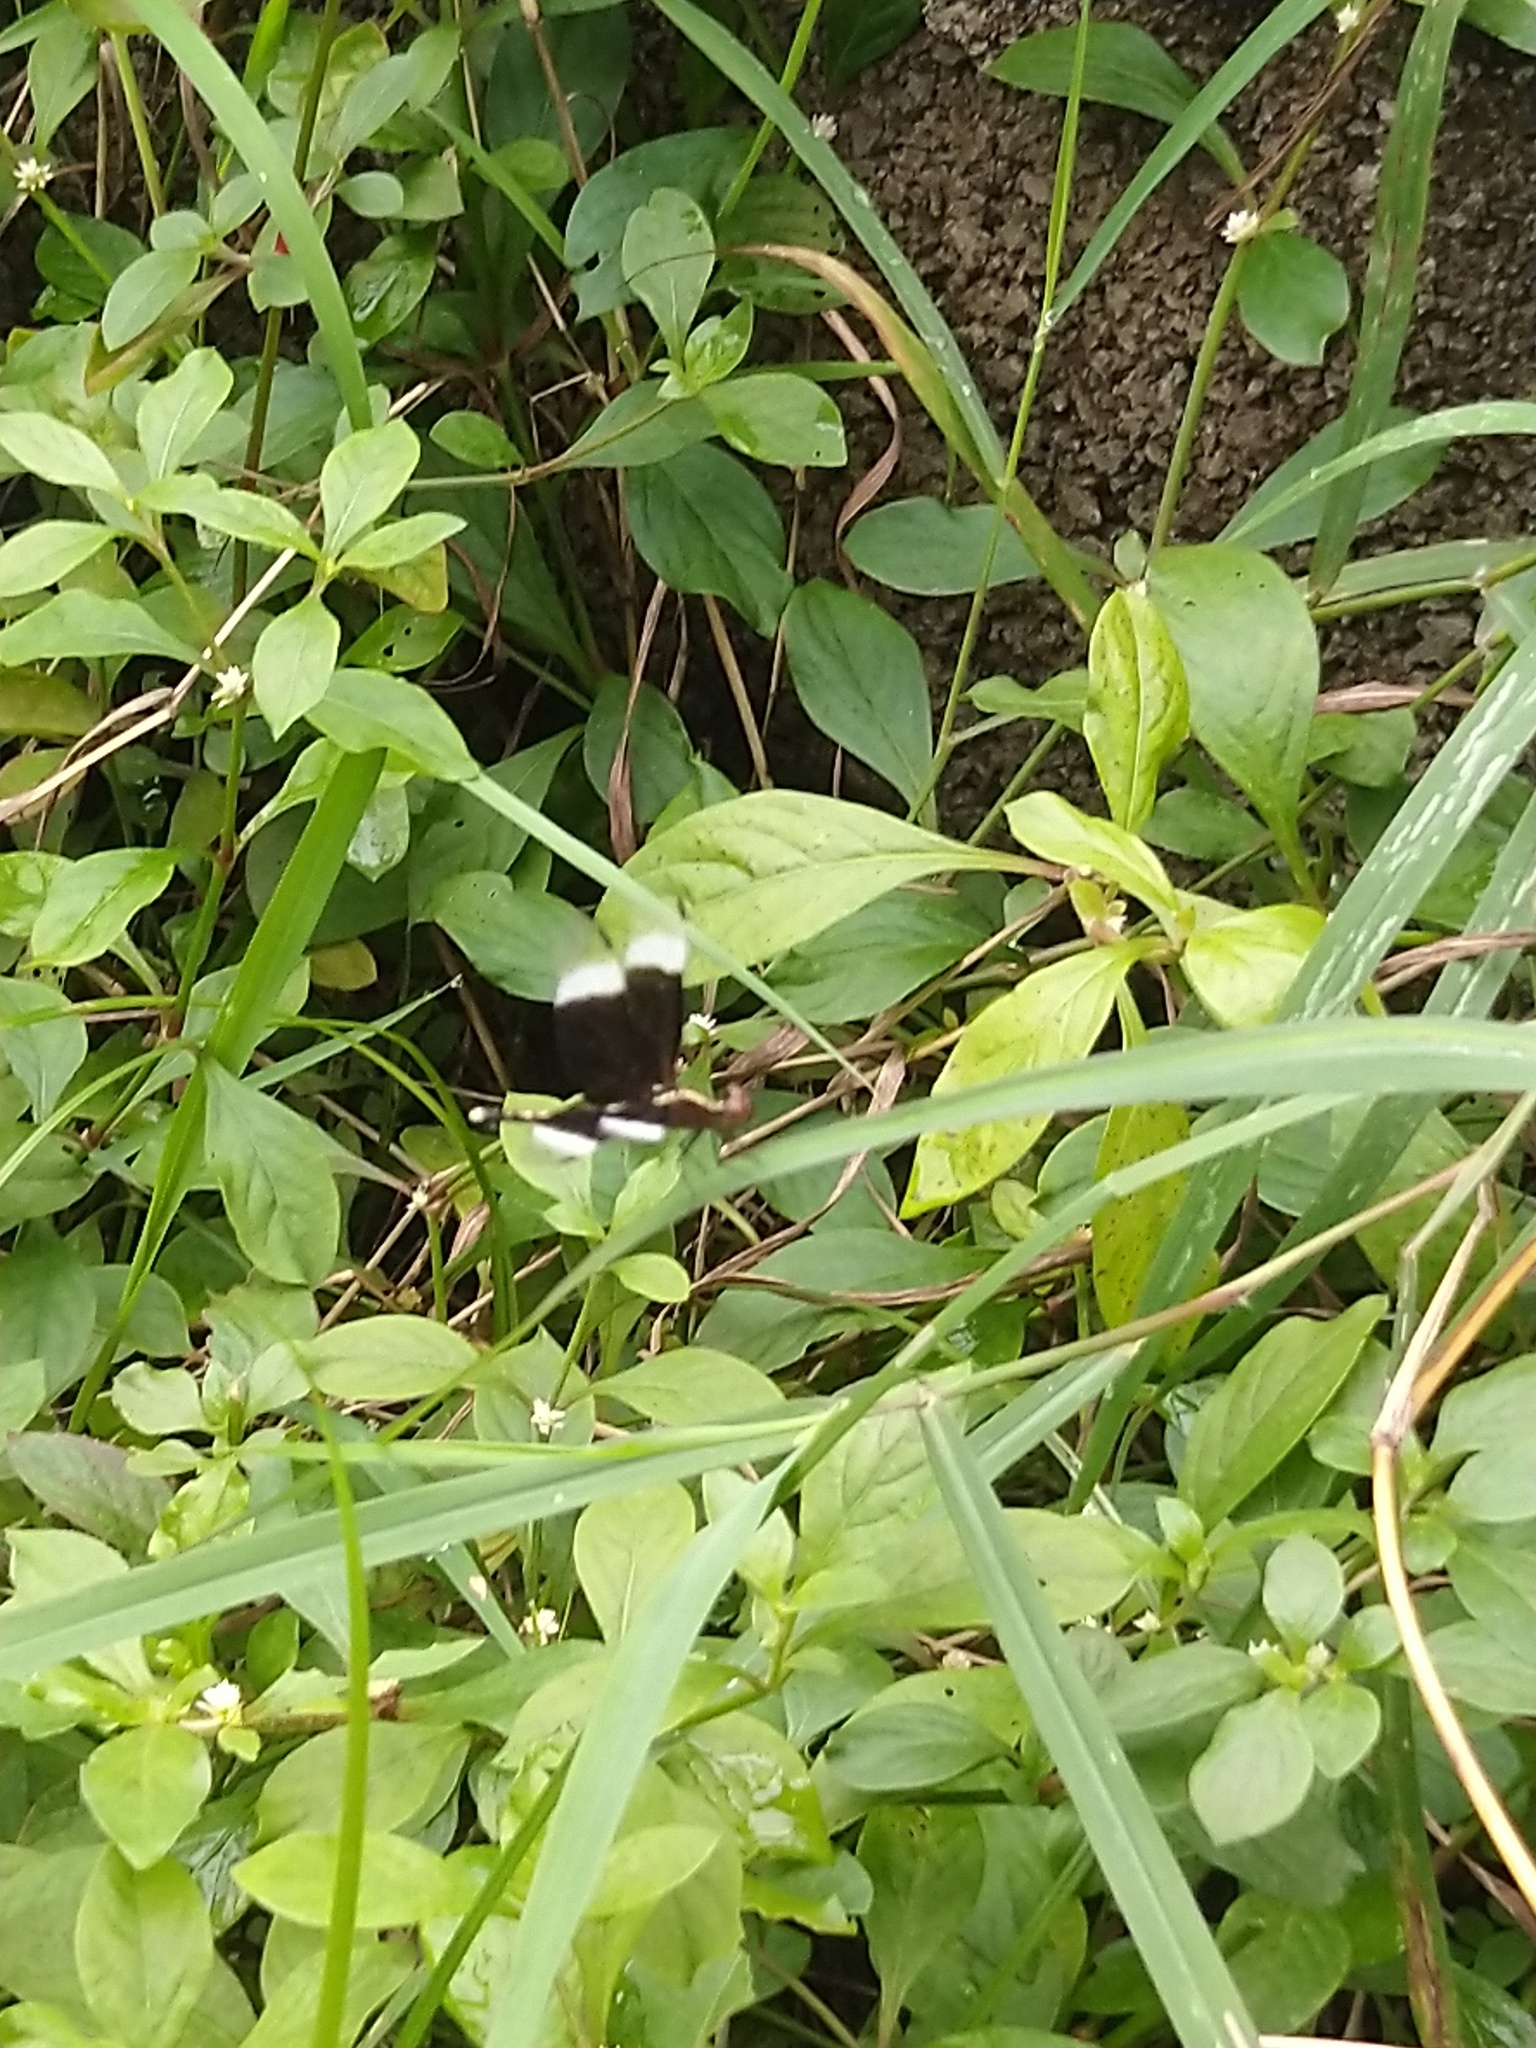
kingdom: Animalia
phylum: Arthropoda
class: Insecta
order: Odonata
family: Libellulidae
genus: Neurothemis
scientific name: Neurothemis tullia
